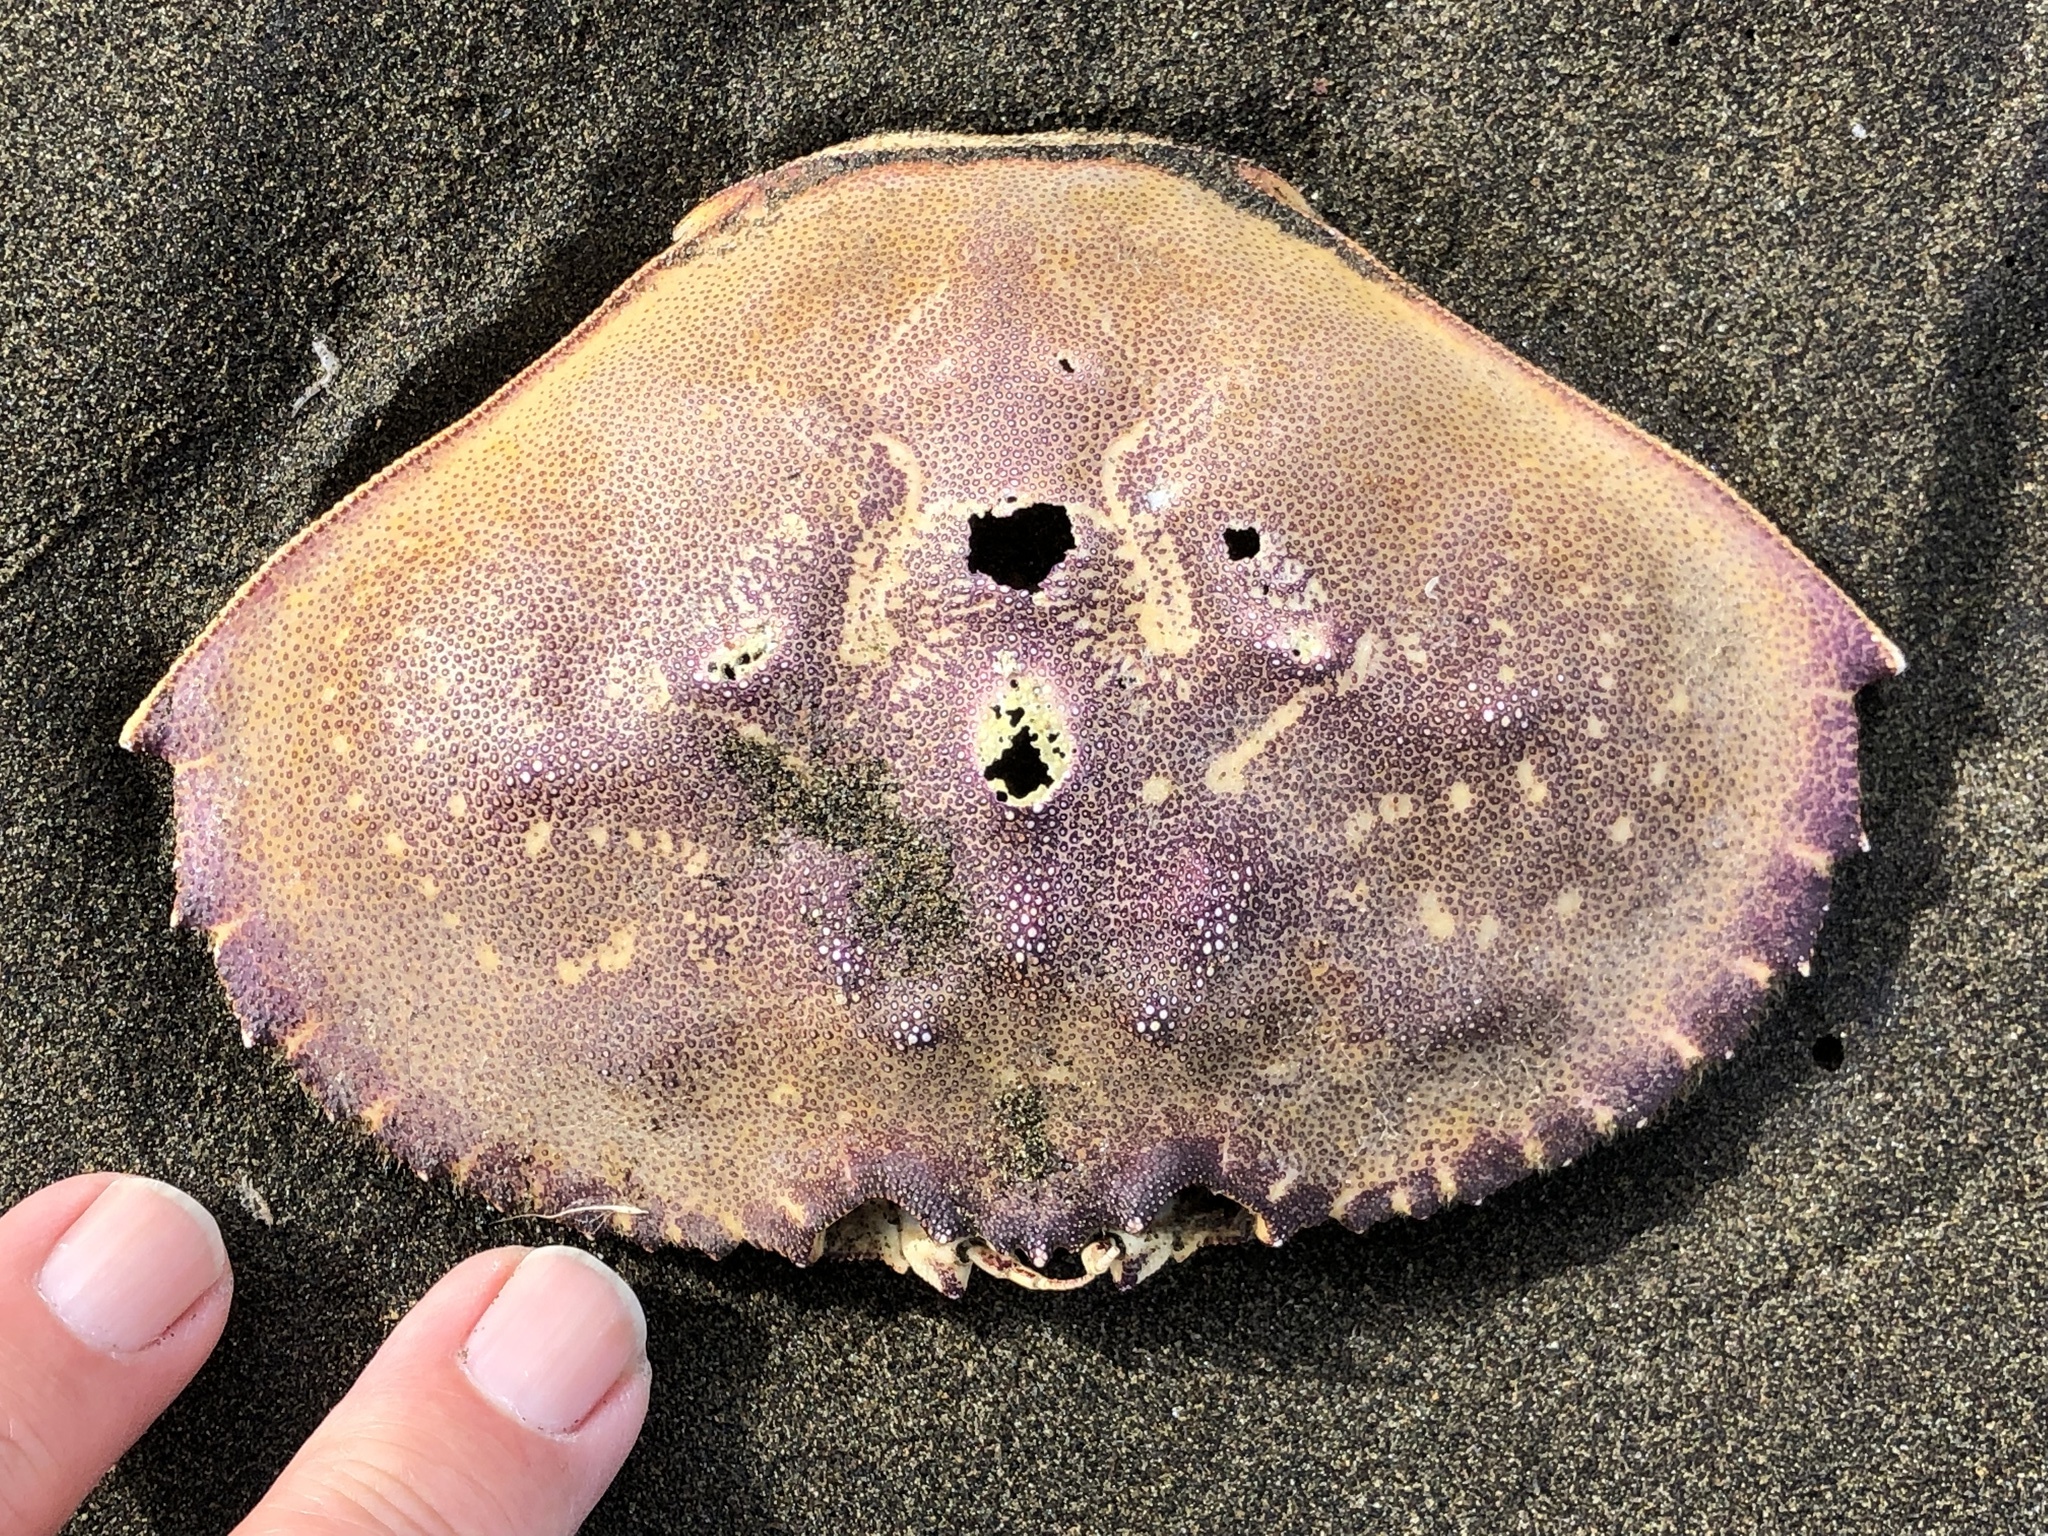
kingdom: Animalia
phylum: Arthropoda
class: Malacostraca
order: Decapoda
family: Cancridae
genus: Metacarcinus
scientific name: Metacarcinus magister
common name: Californian crab
